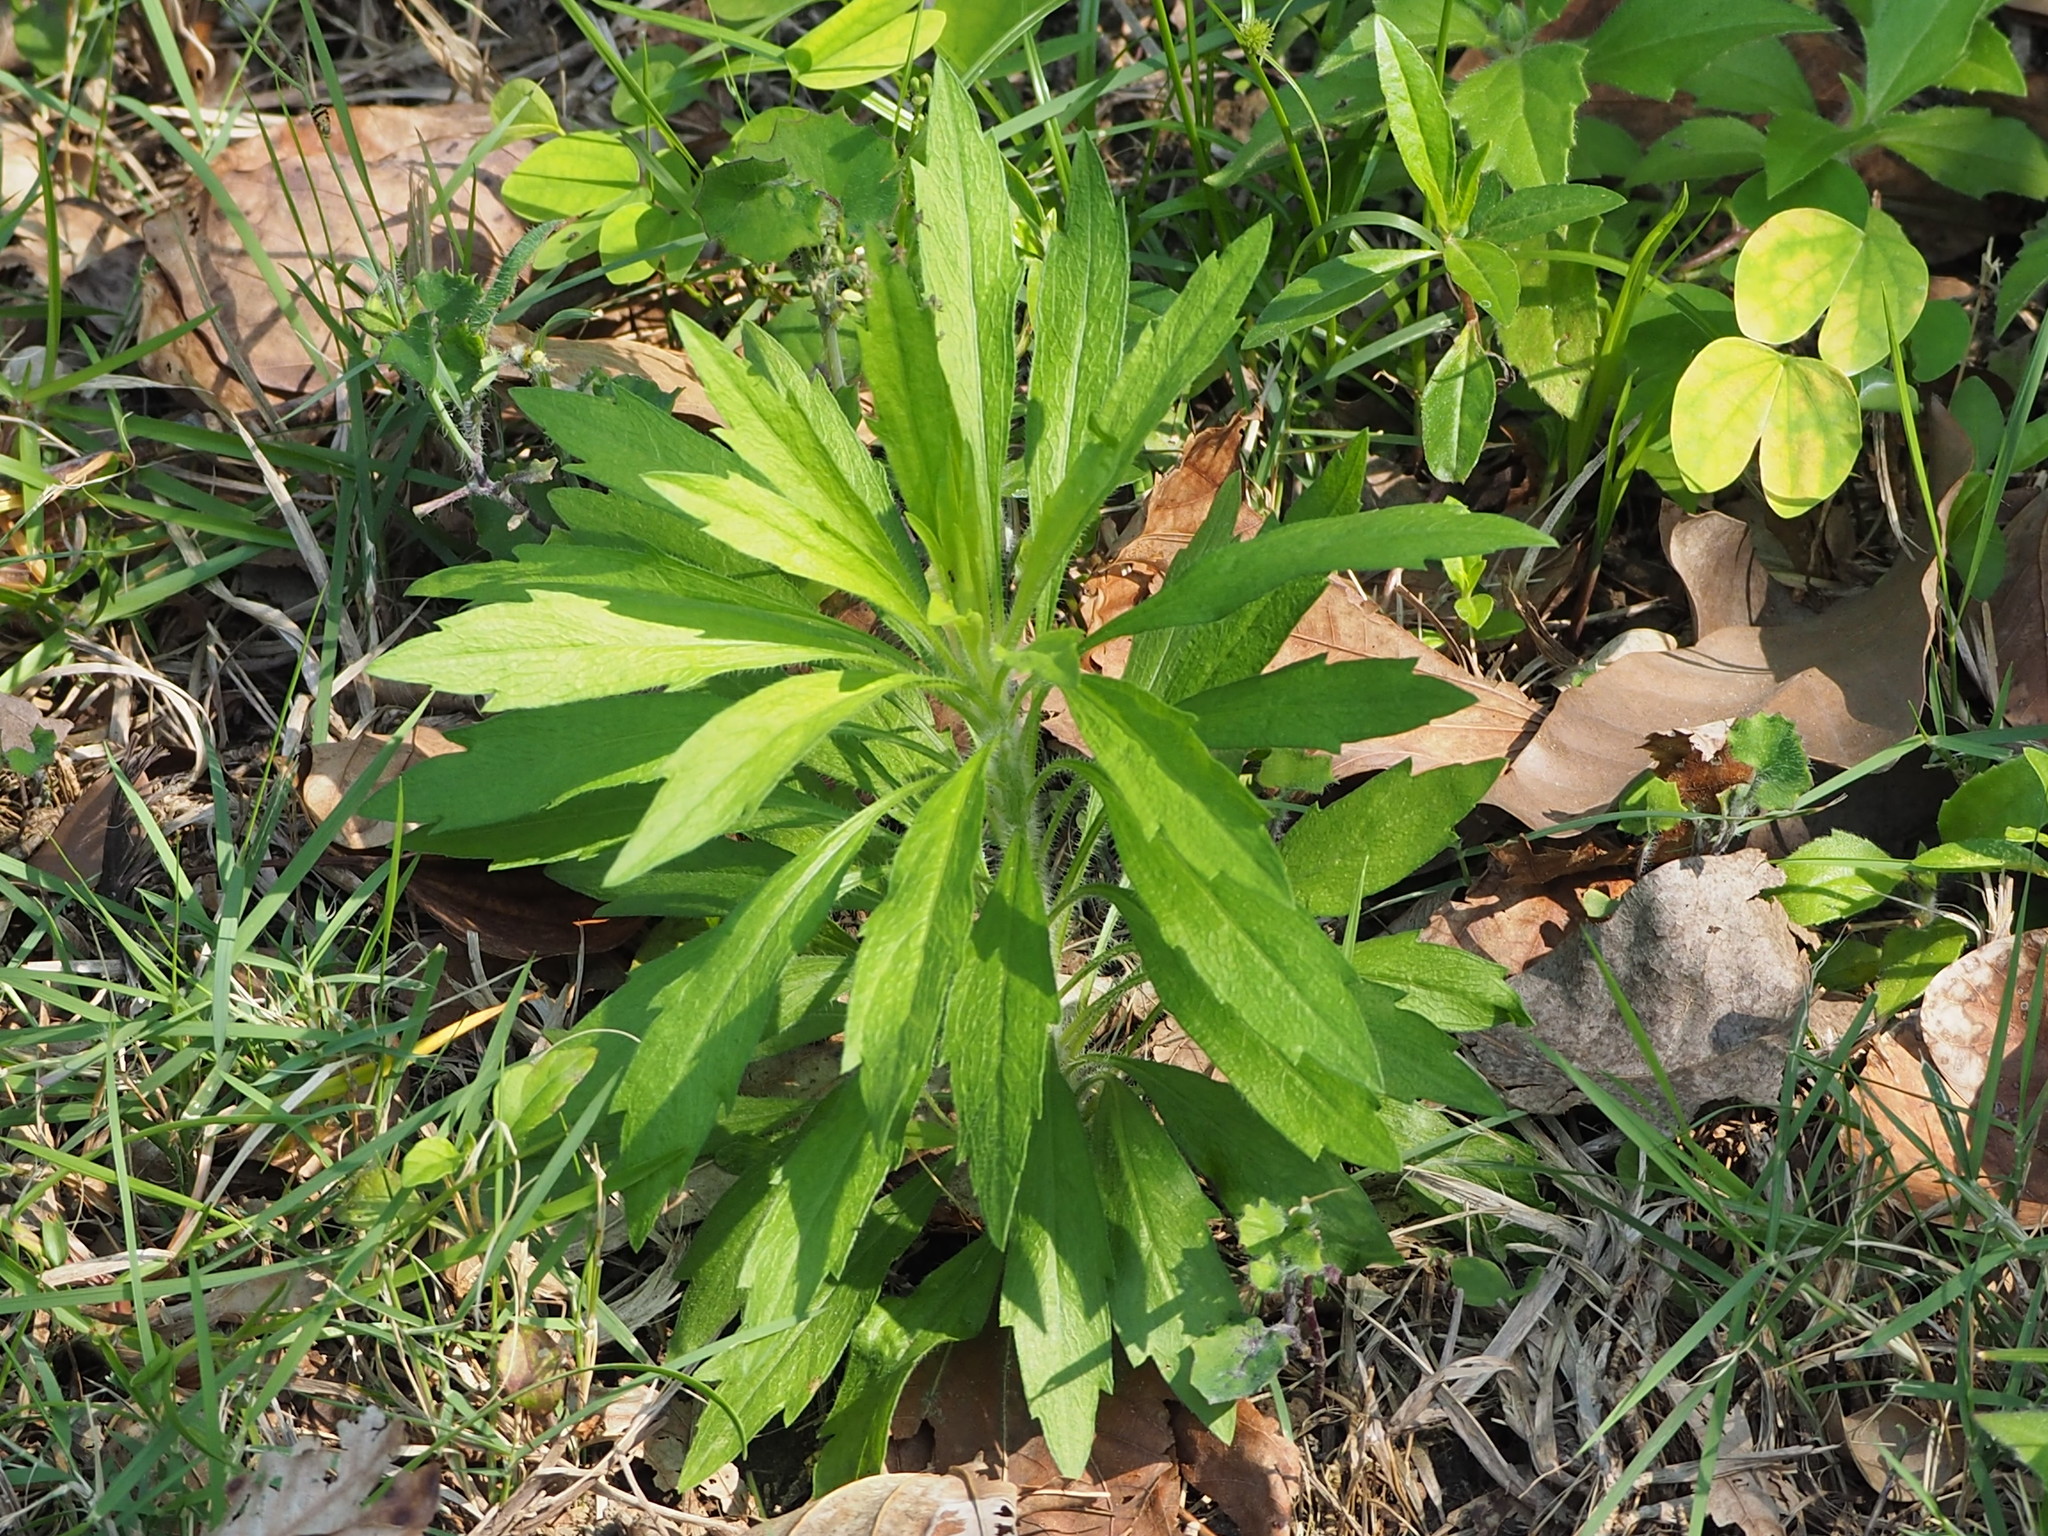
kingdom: Plantae
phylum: Tracheophyta
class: Magnoliopsida
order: Asterales
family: Asteraceae
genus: Erigeron
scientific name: Erigeron sumatrensis
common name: Daisy
